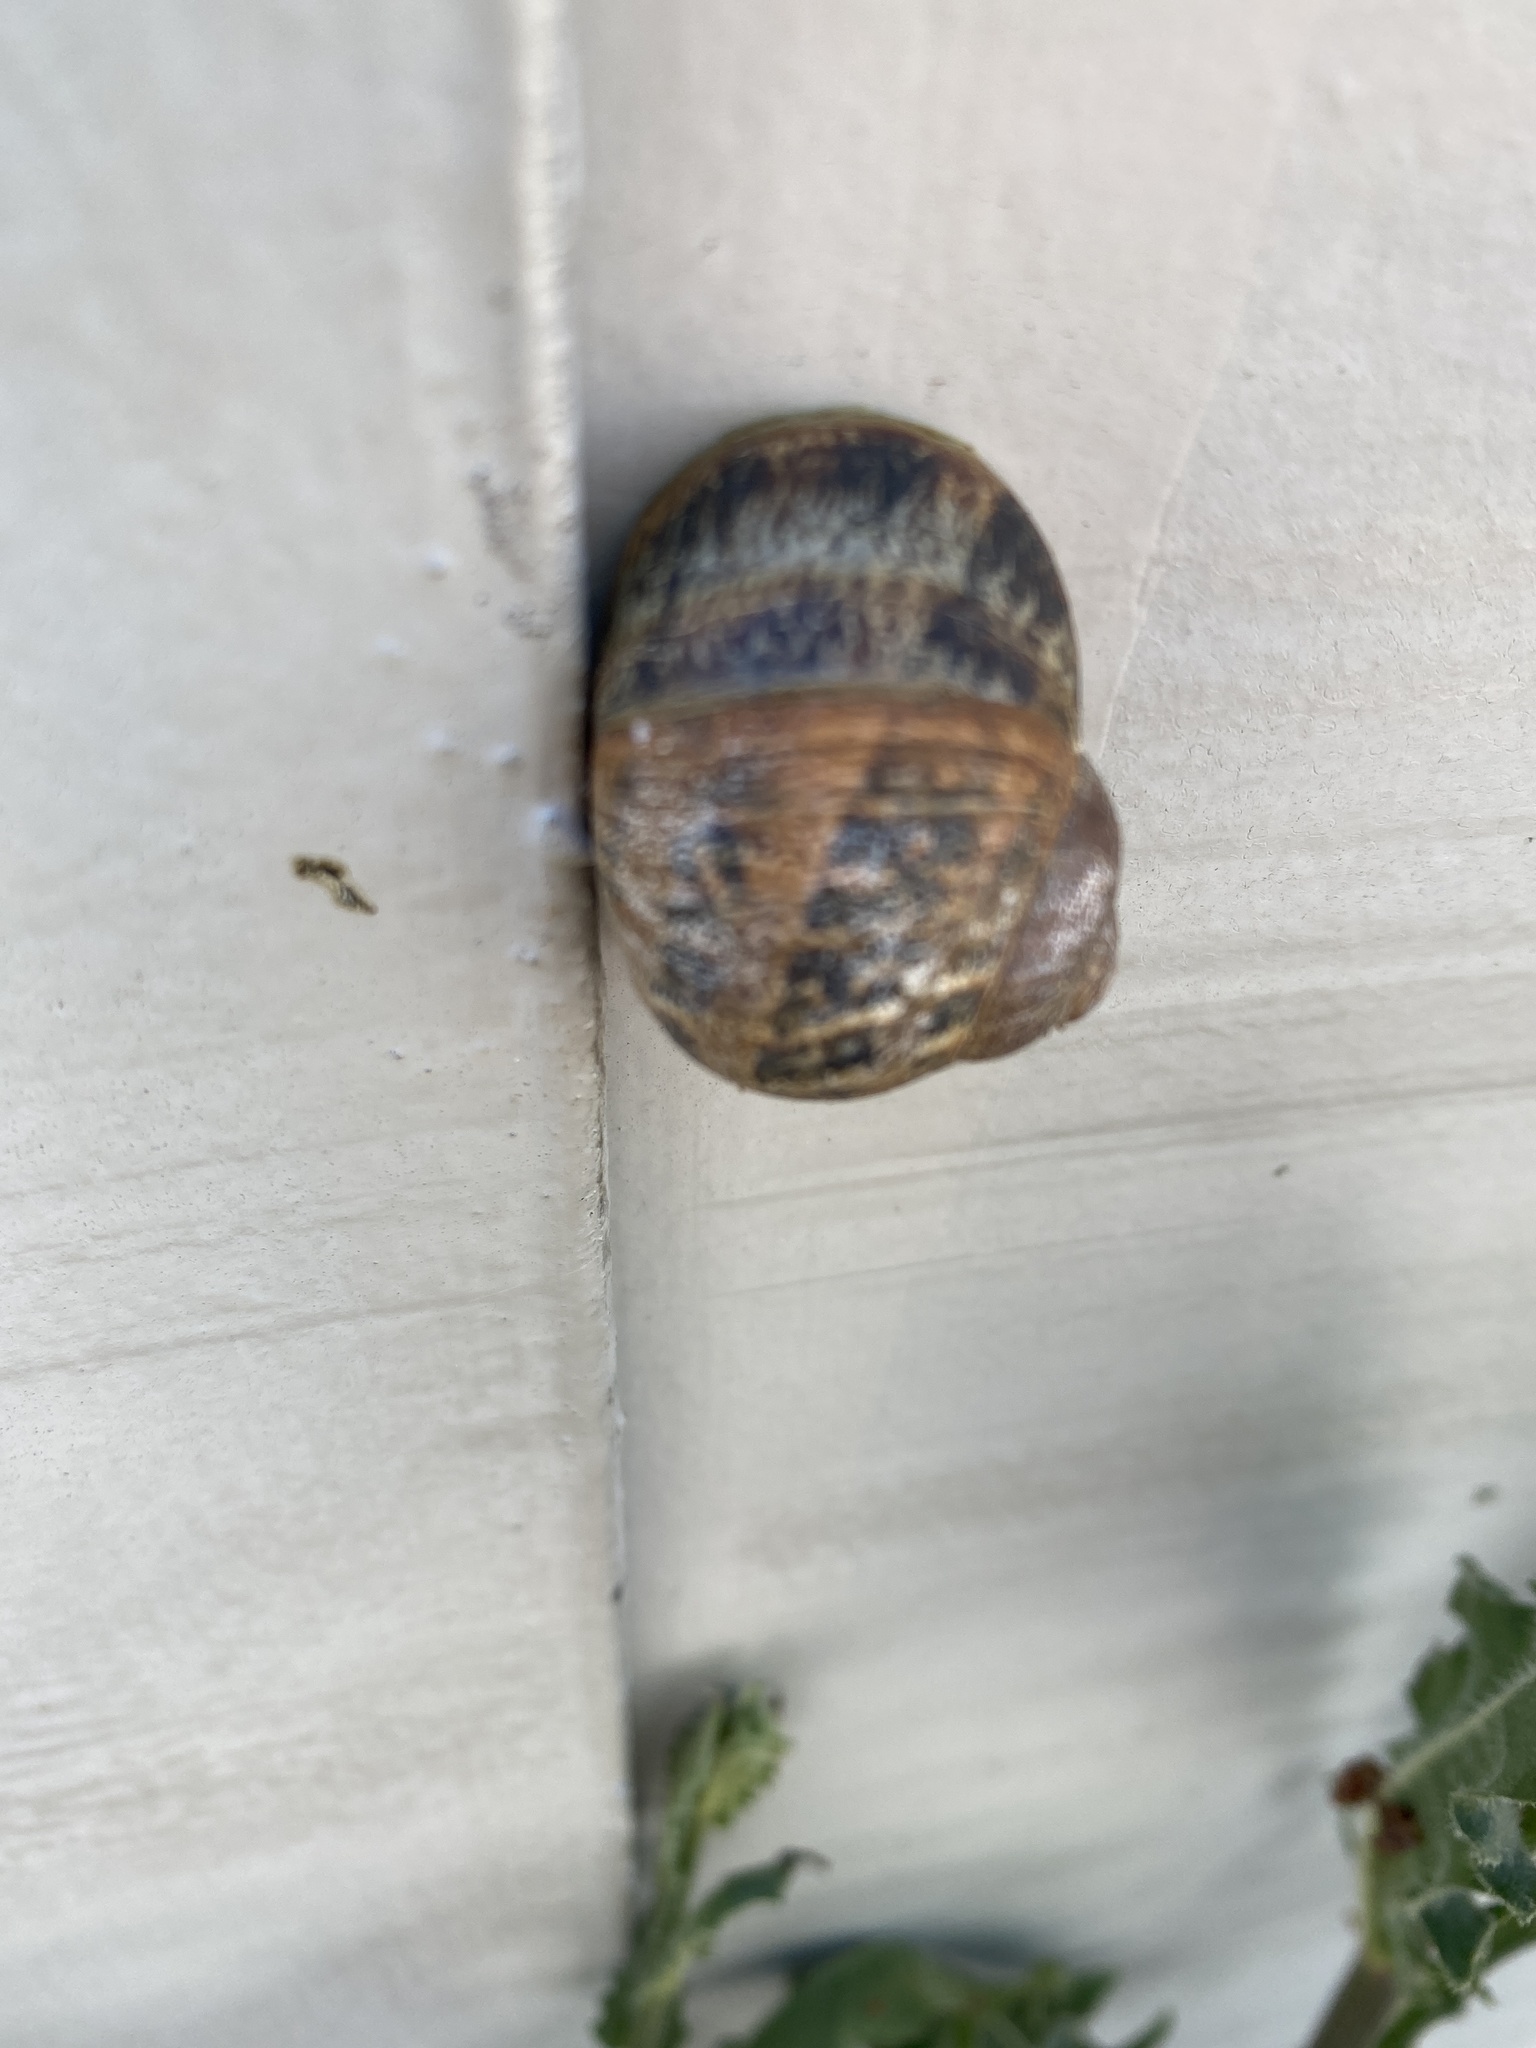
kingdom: Animalia
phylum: Mollusca
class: Gastropoda
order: Stylommatophora
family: Helicidae
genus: Cornu
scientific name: Cornu aspersum
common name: Brown garden snail
